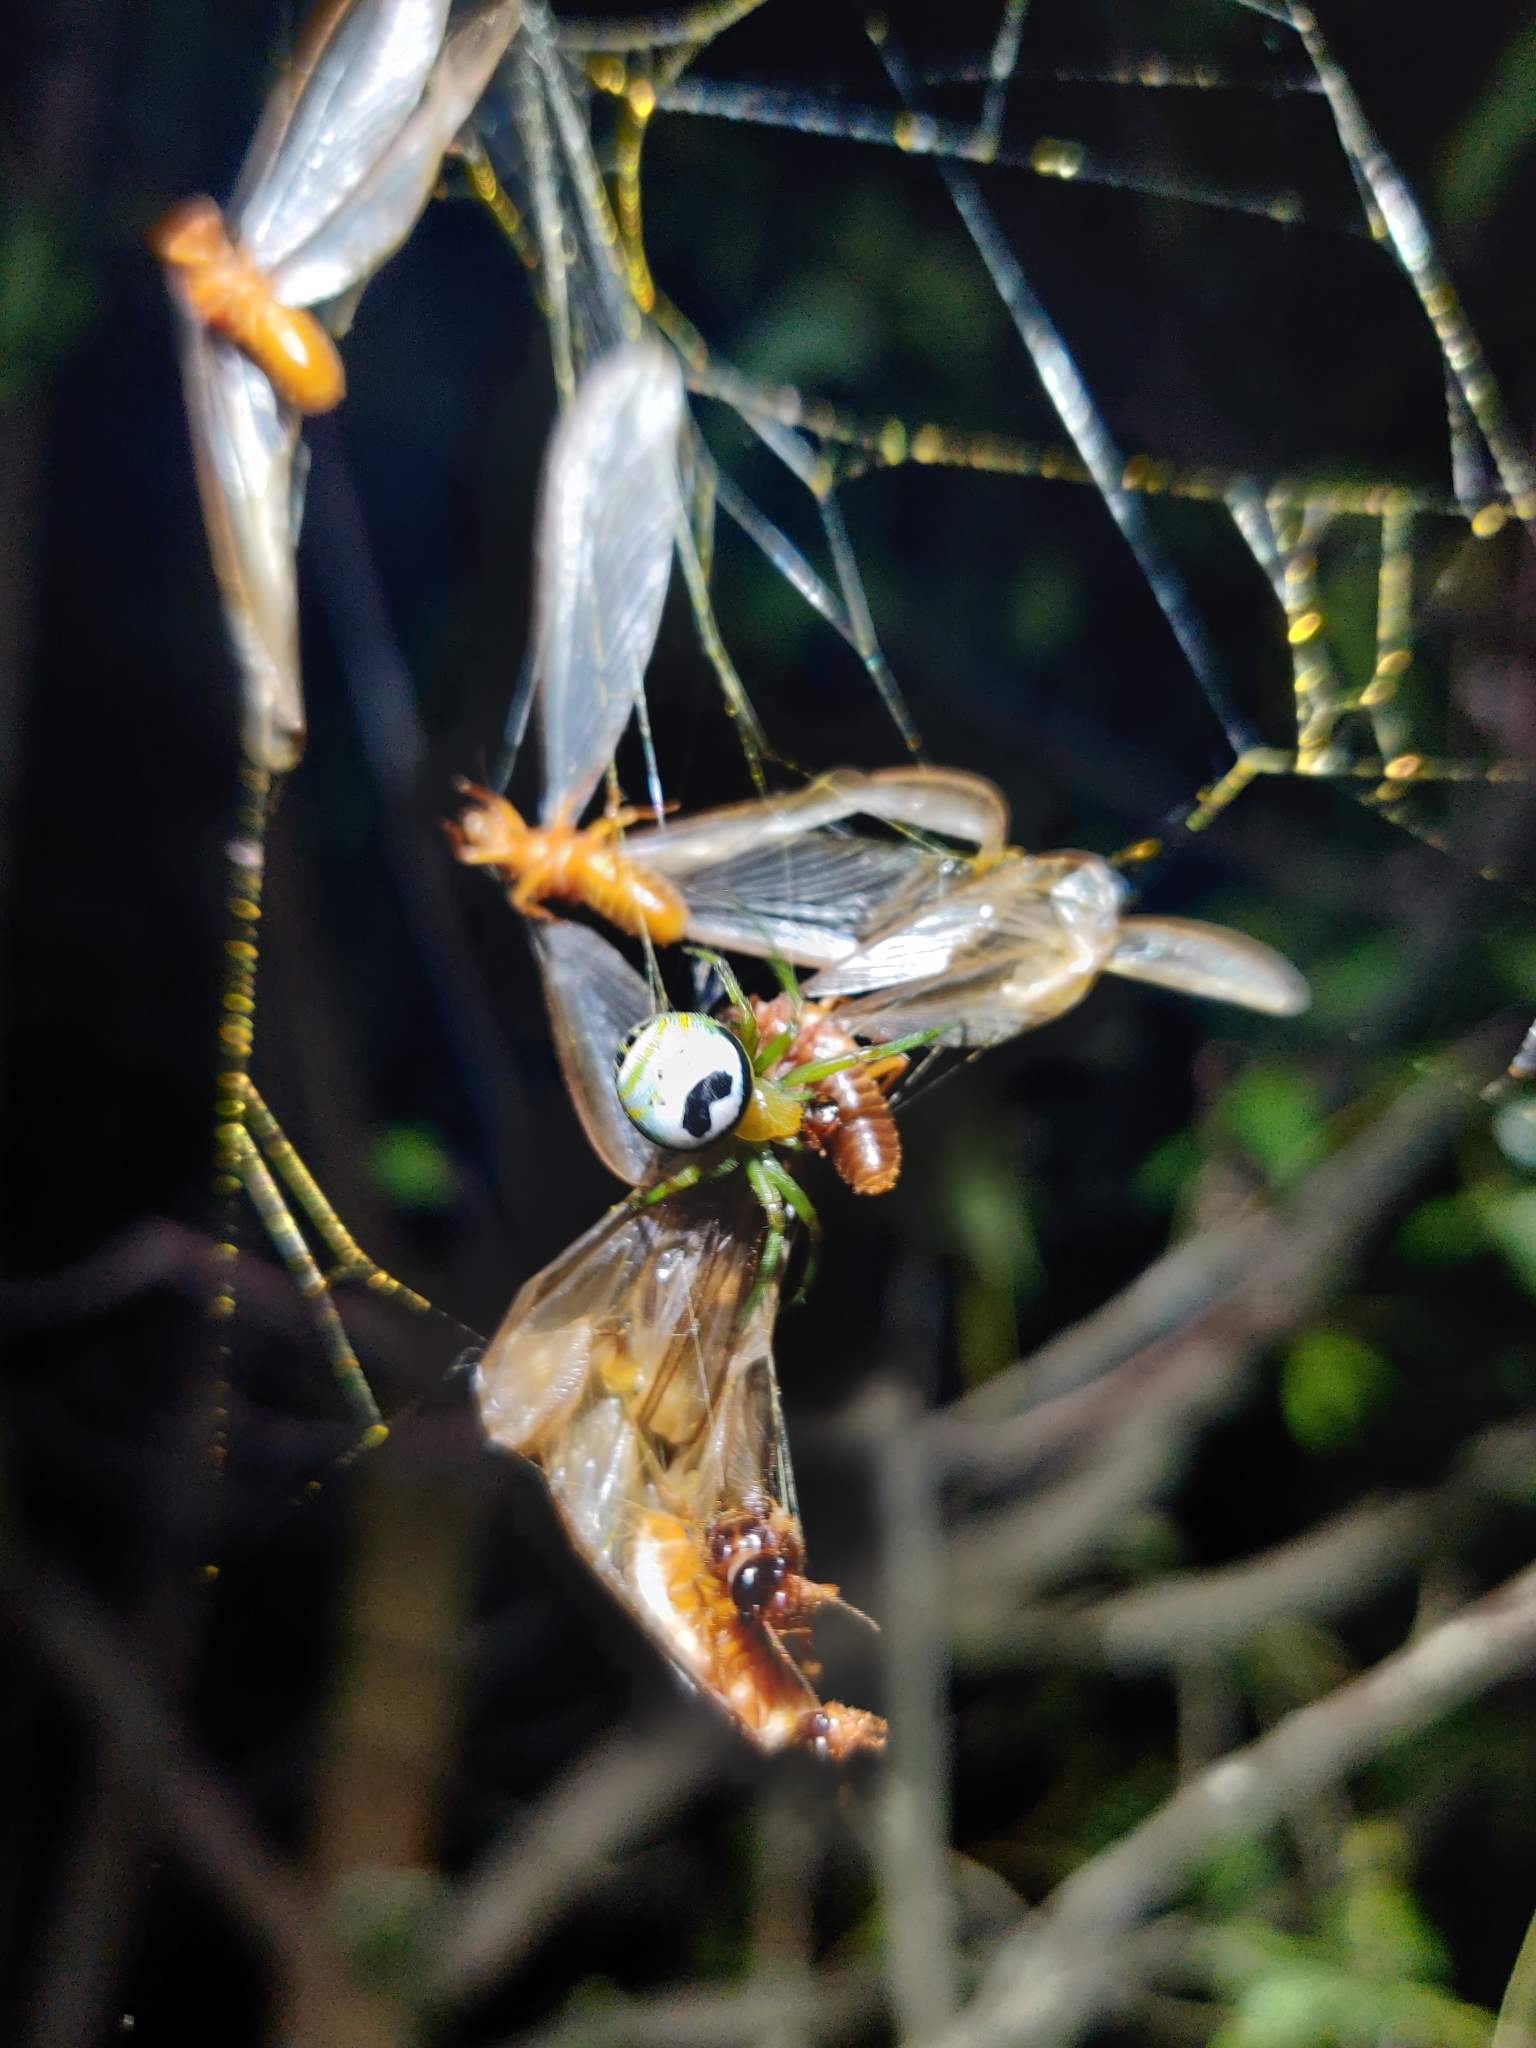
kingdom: Animalia
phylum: Arthropoda
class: Arachnida
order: Araneae
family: Araneidae
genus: Bijoaraneus
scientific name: Bijoaraneus mitificus
